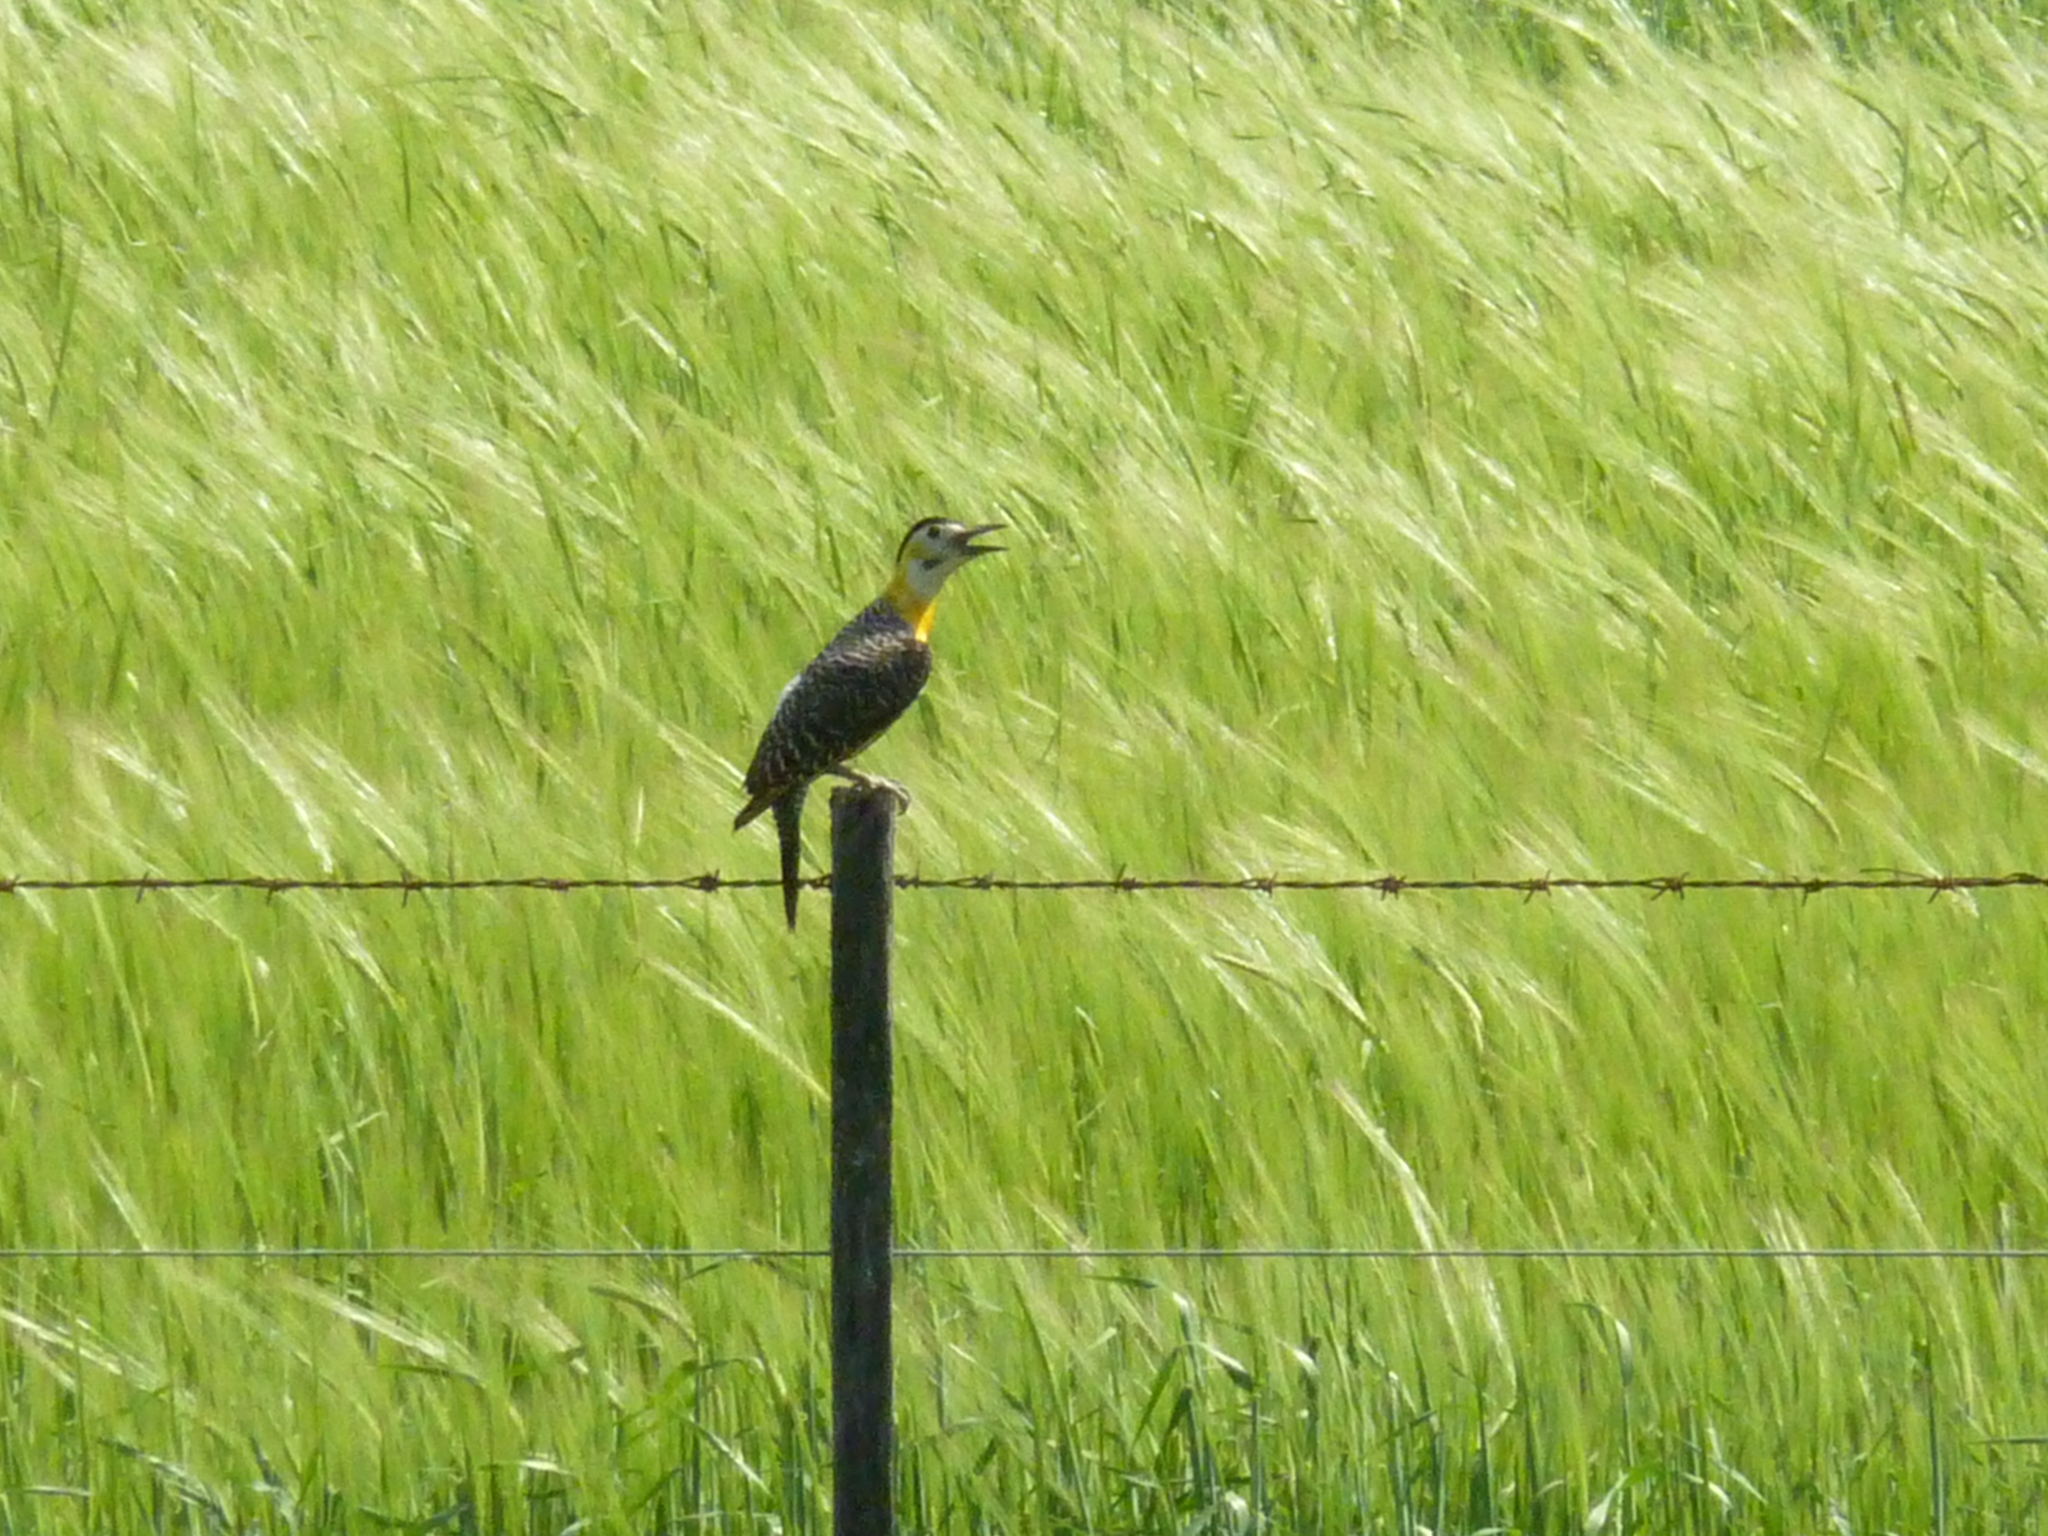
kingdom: Animalia
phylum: Chordata
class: Aves
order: Piciformes
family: Picidae
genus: Colaptes
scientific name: Colaptes campestris
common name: Campo flicker
